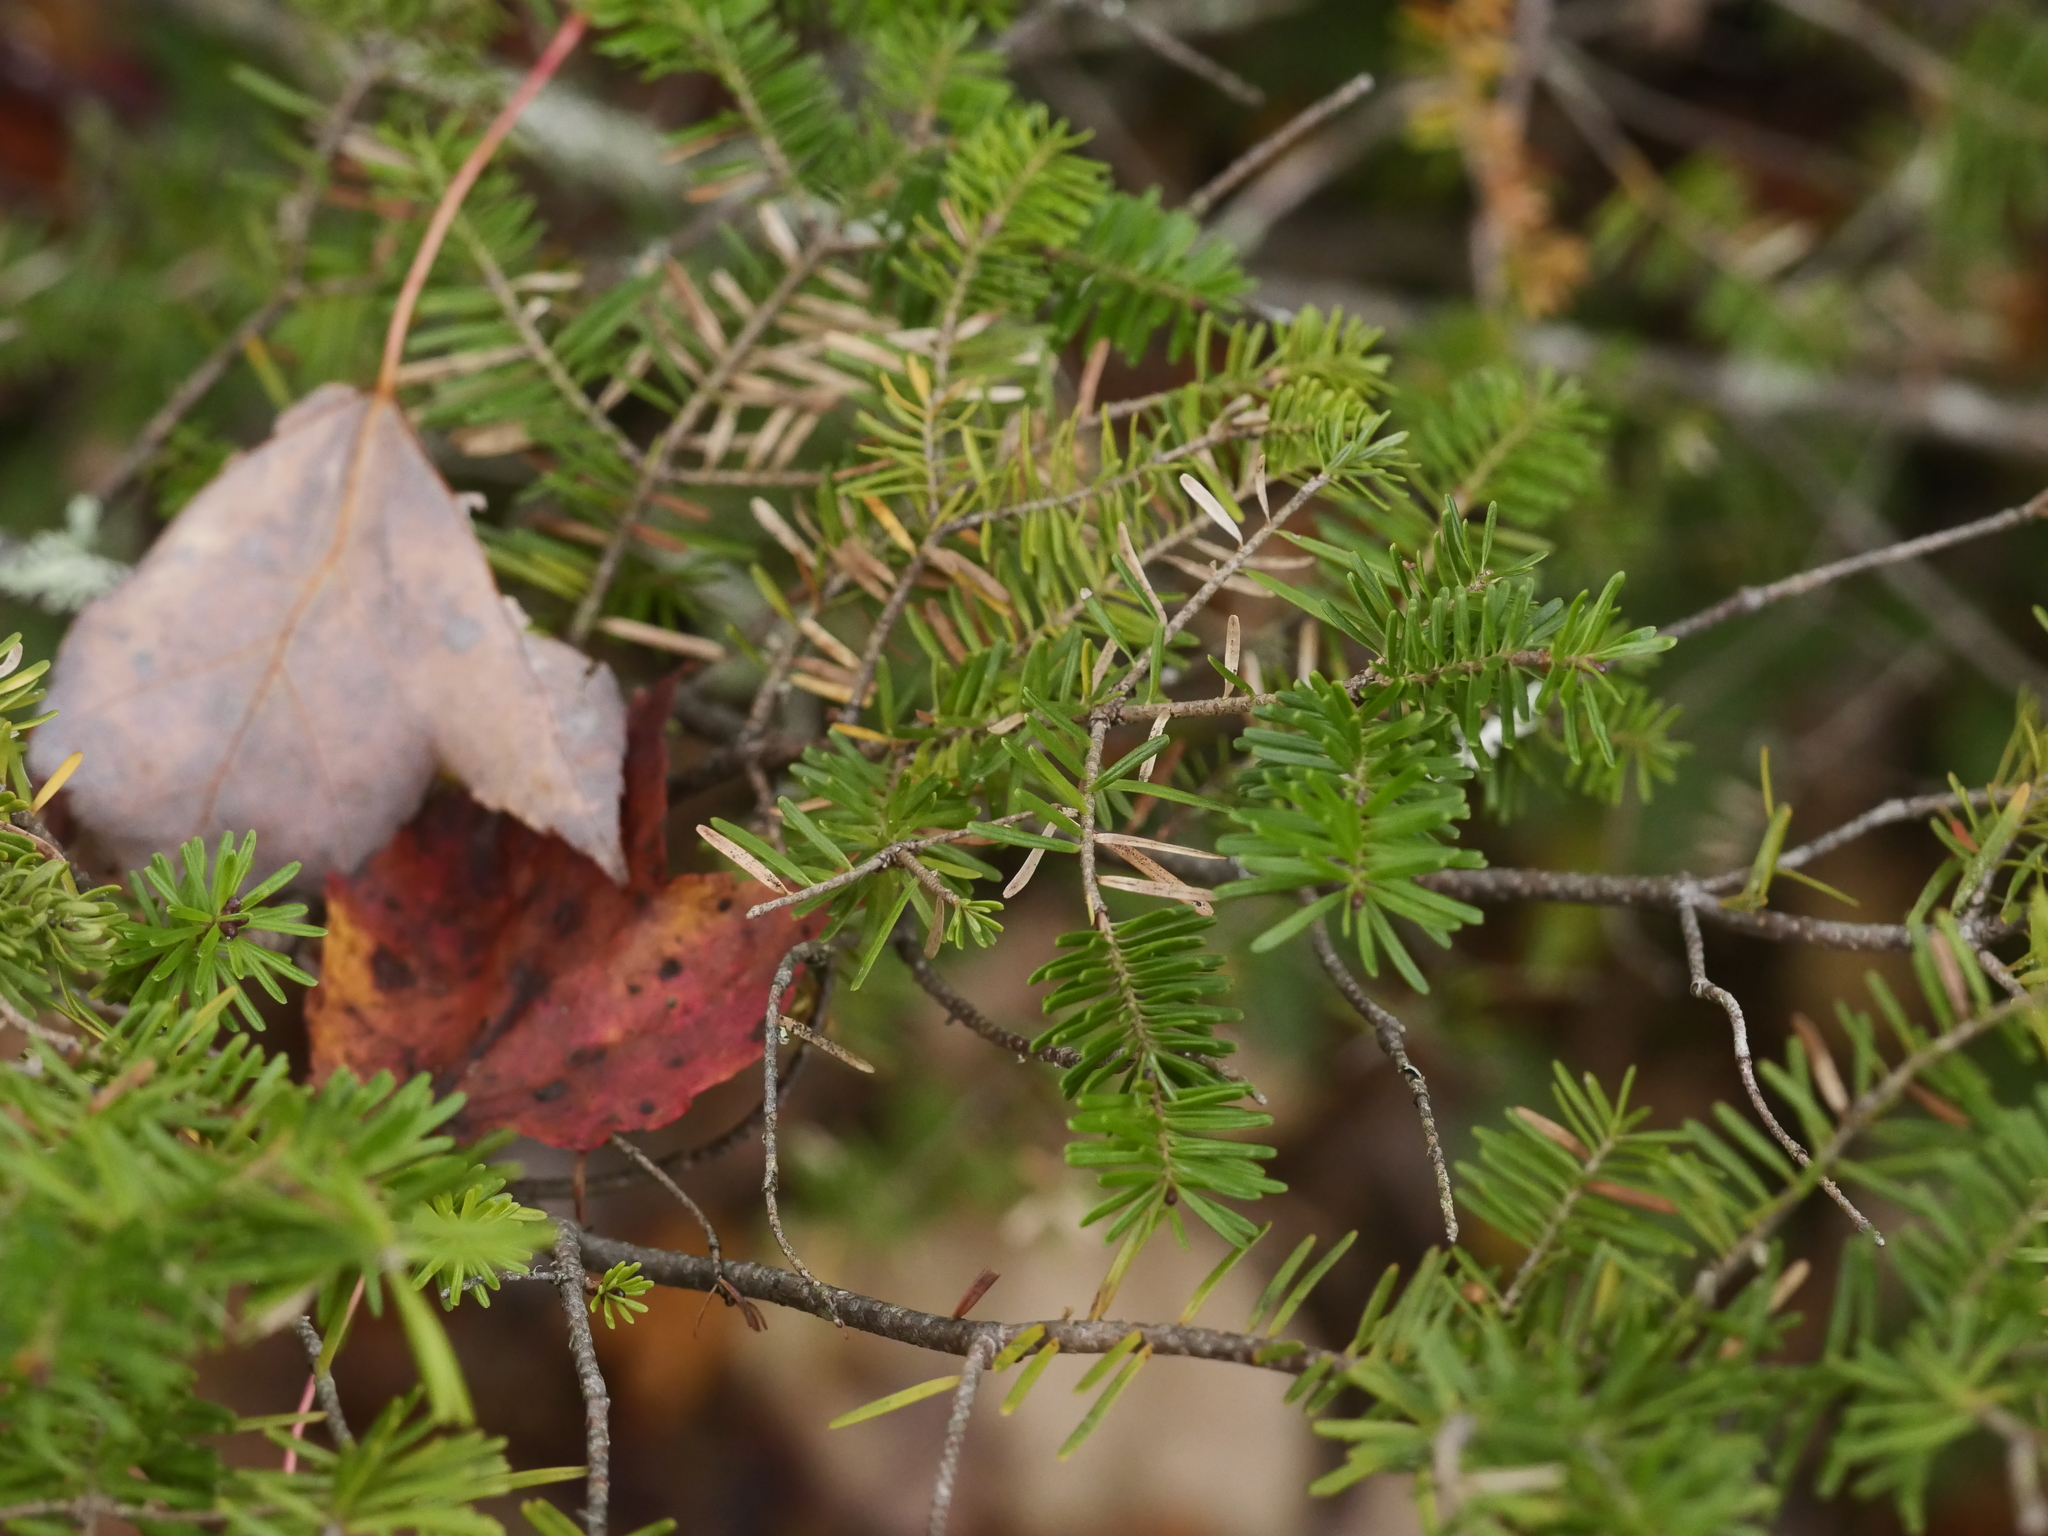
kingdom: Plantae
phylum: Tracheophyta
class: Pinopsida
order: Pinales
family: Pinaceae
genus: Abies
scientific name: Abies balsamea
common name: Balsam fir
